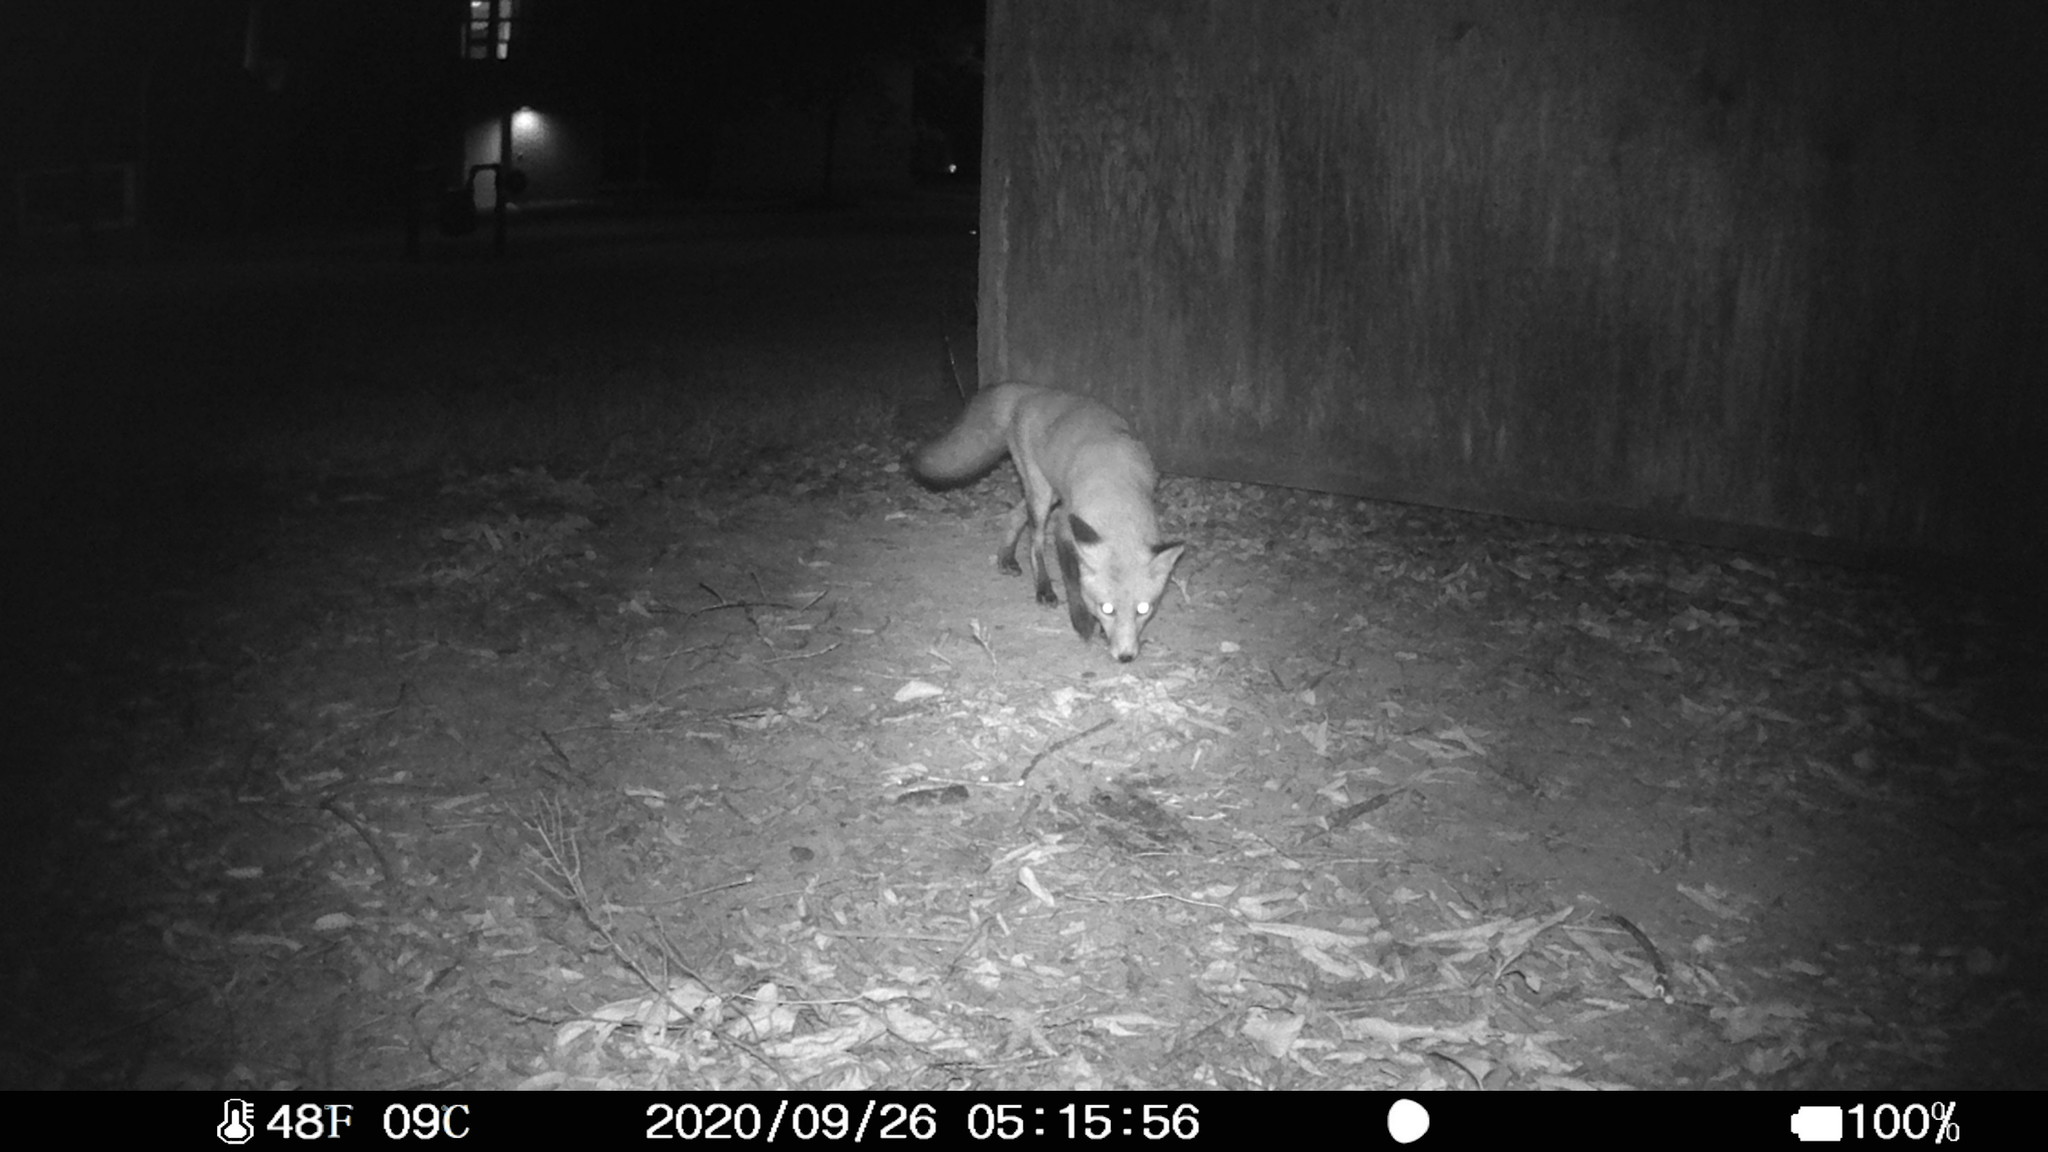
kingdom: Animalia
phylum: Chordata
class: Mammalia
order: Carnivora
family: Canidae
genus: Vulpes
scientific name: Vulpes vulpes
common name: Red fox
